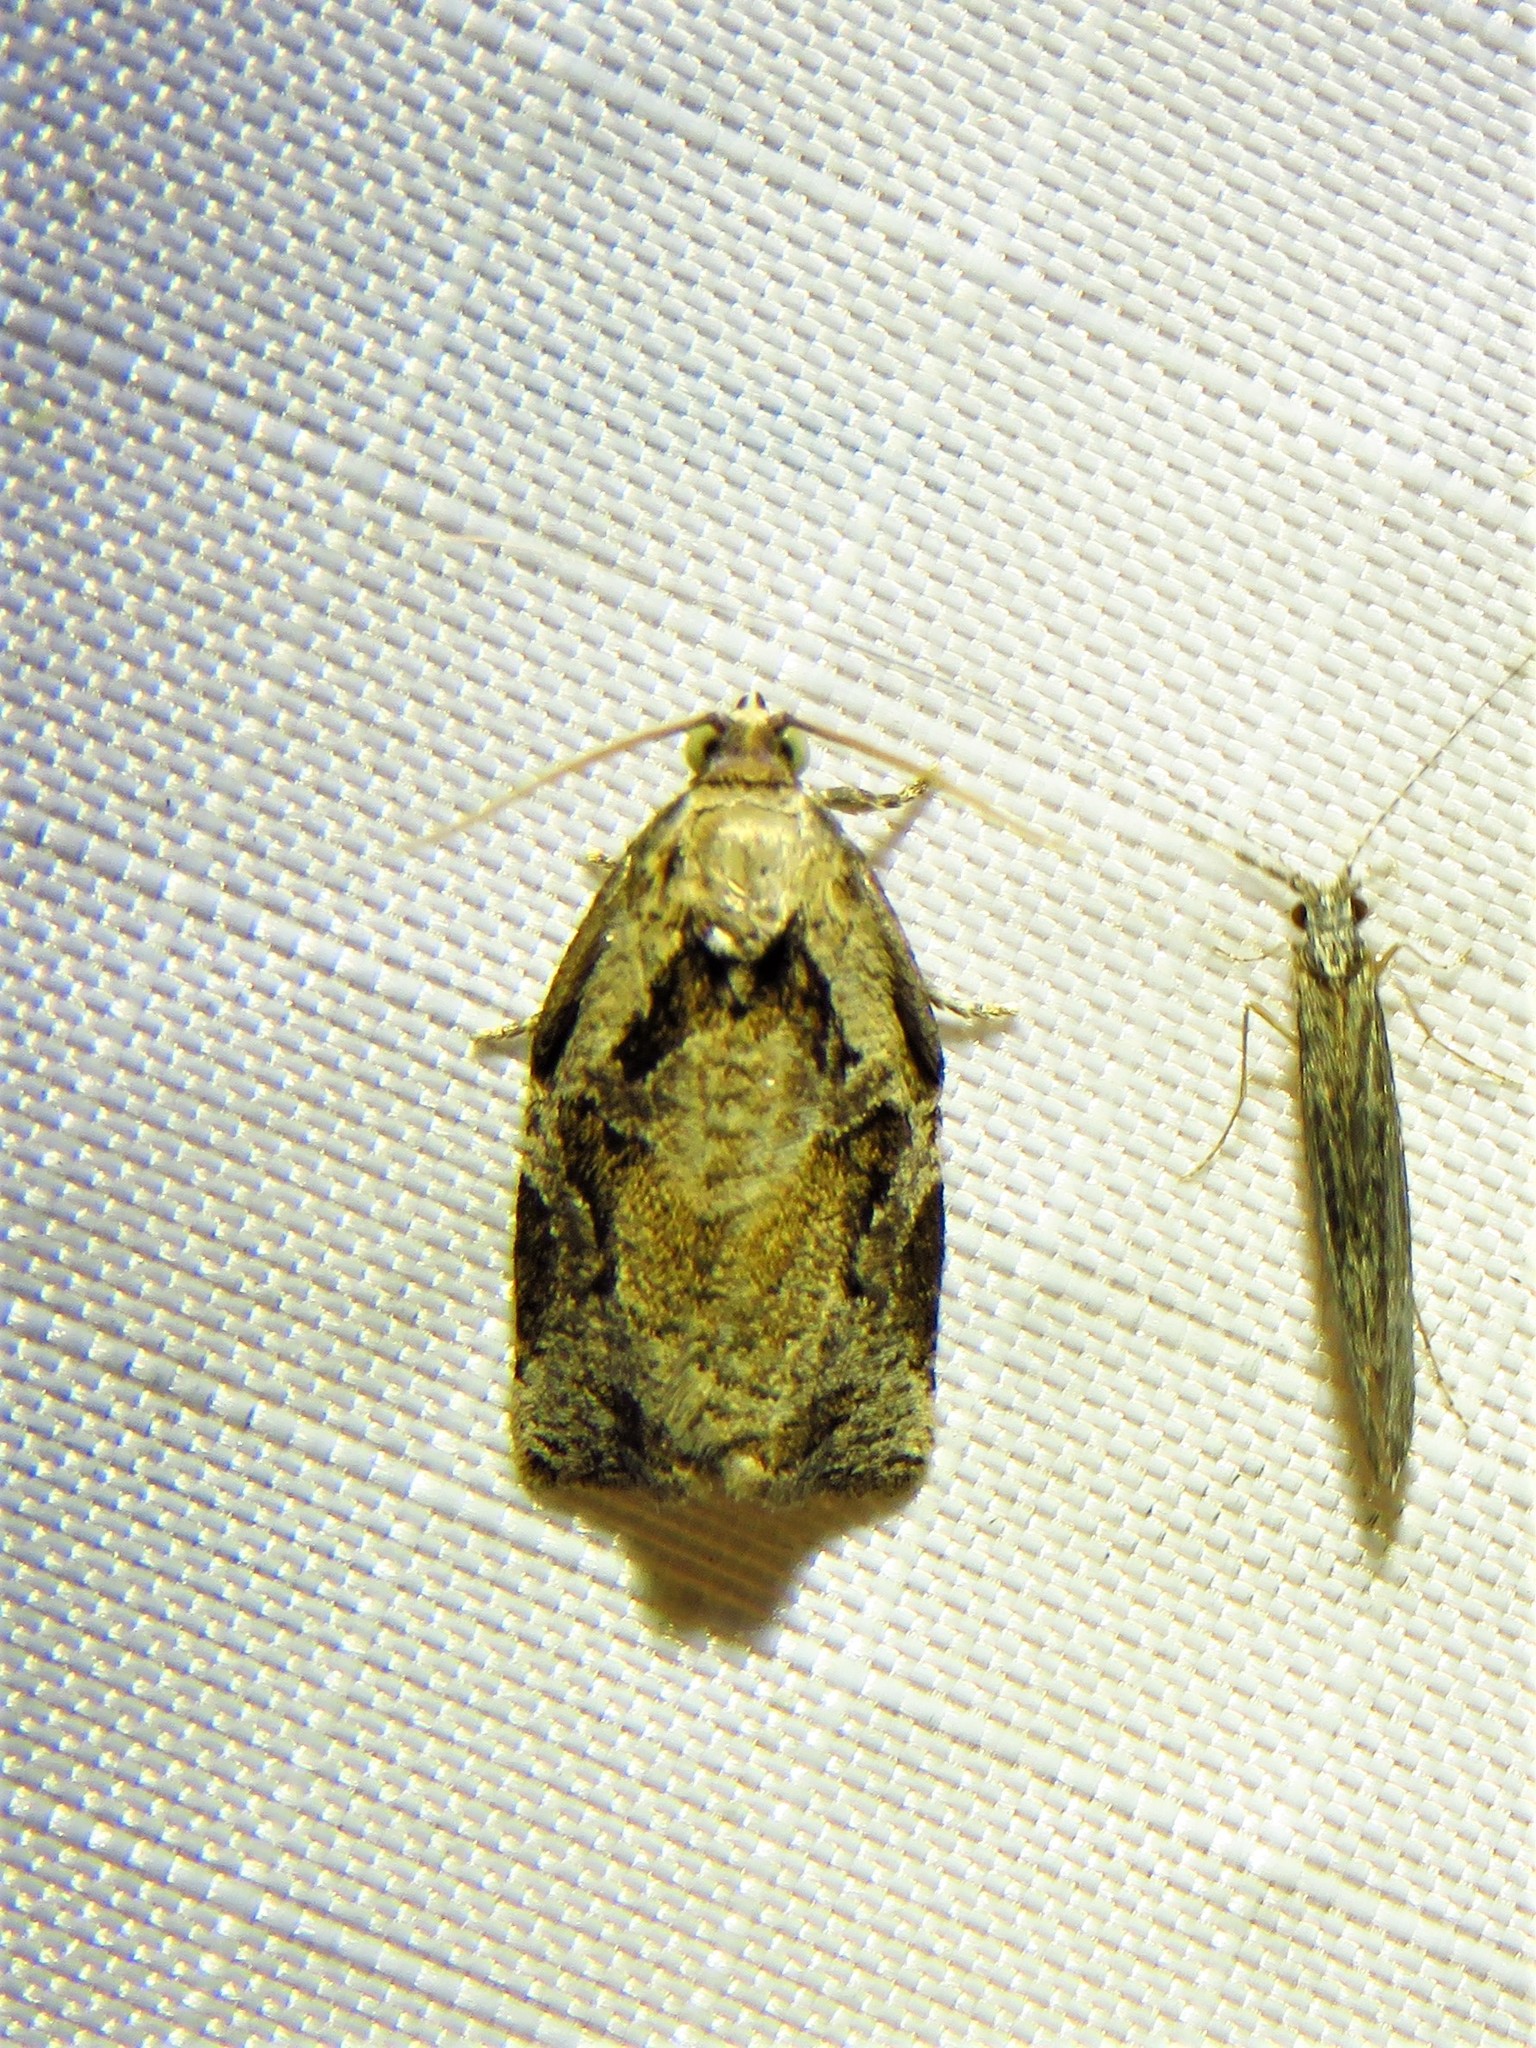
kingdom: Animalia
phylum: Arthropoda
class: Insecta
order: Lepidoptera
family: Tortricidae
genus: Archips
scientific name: Archips grisea
